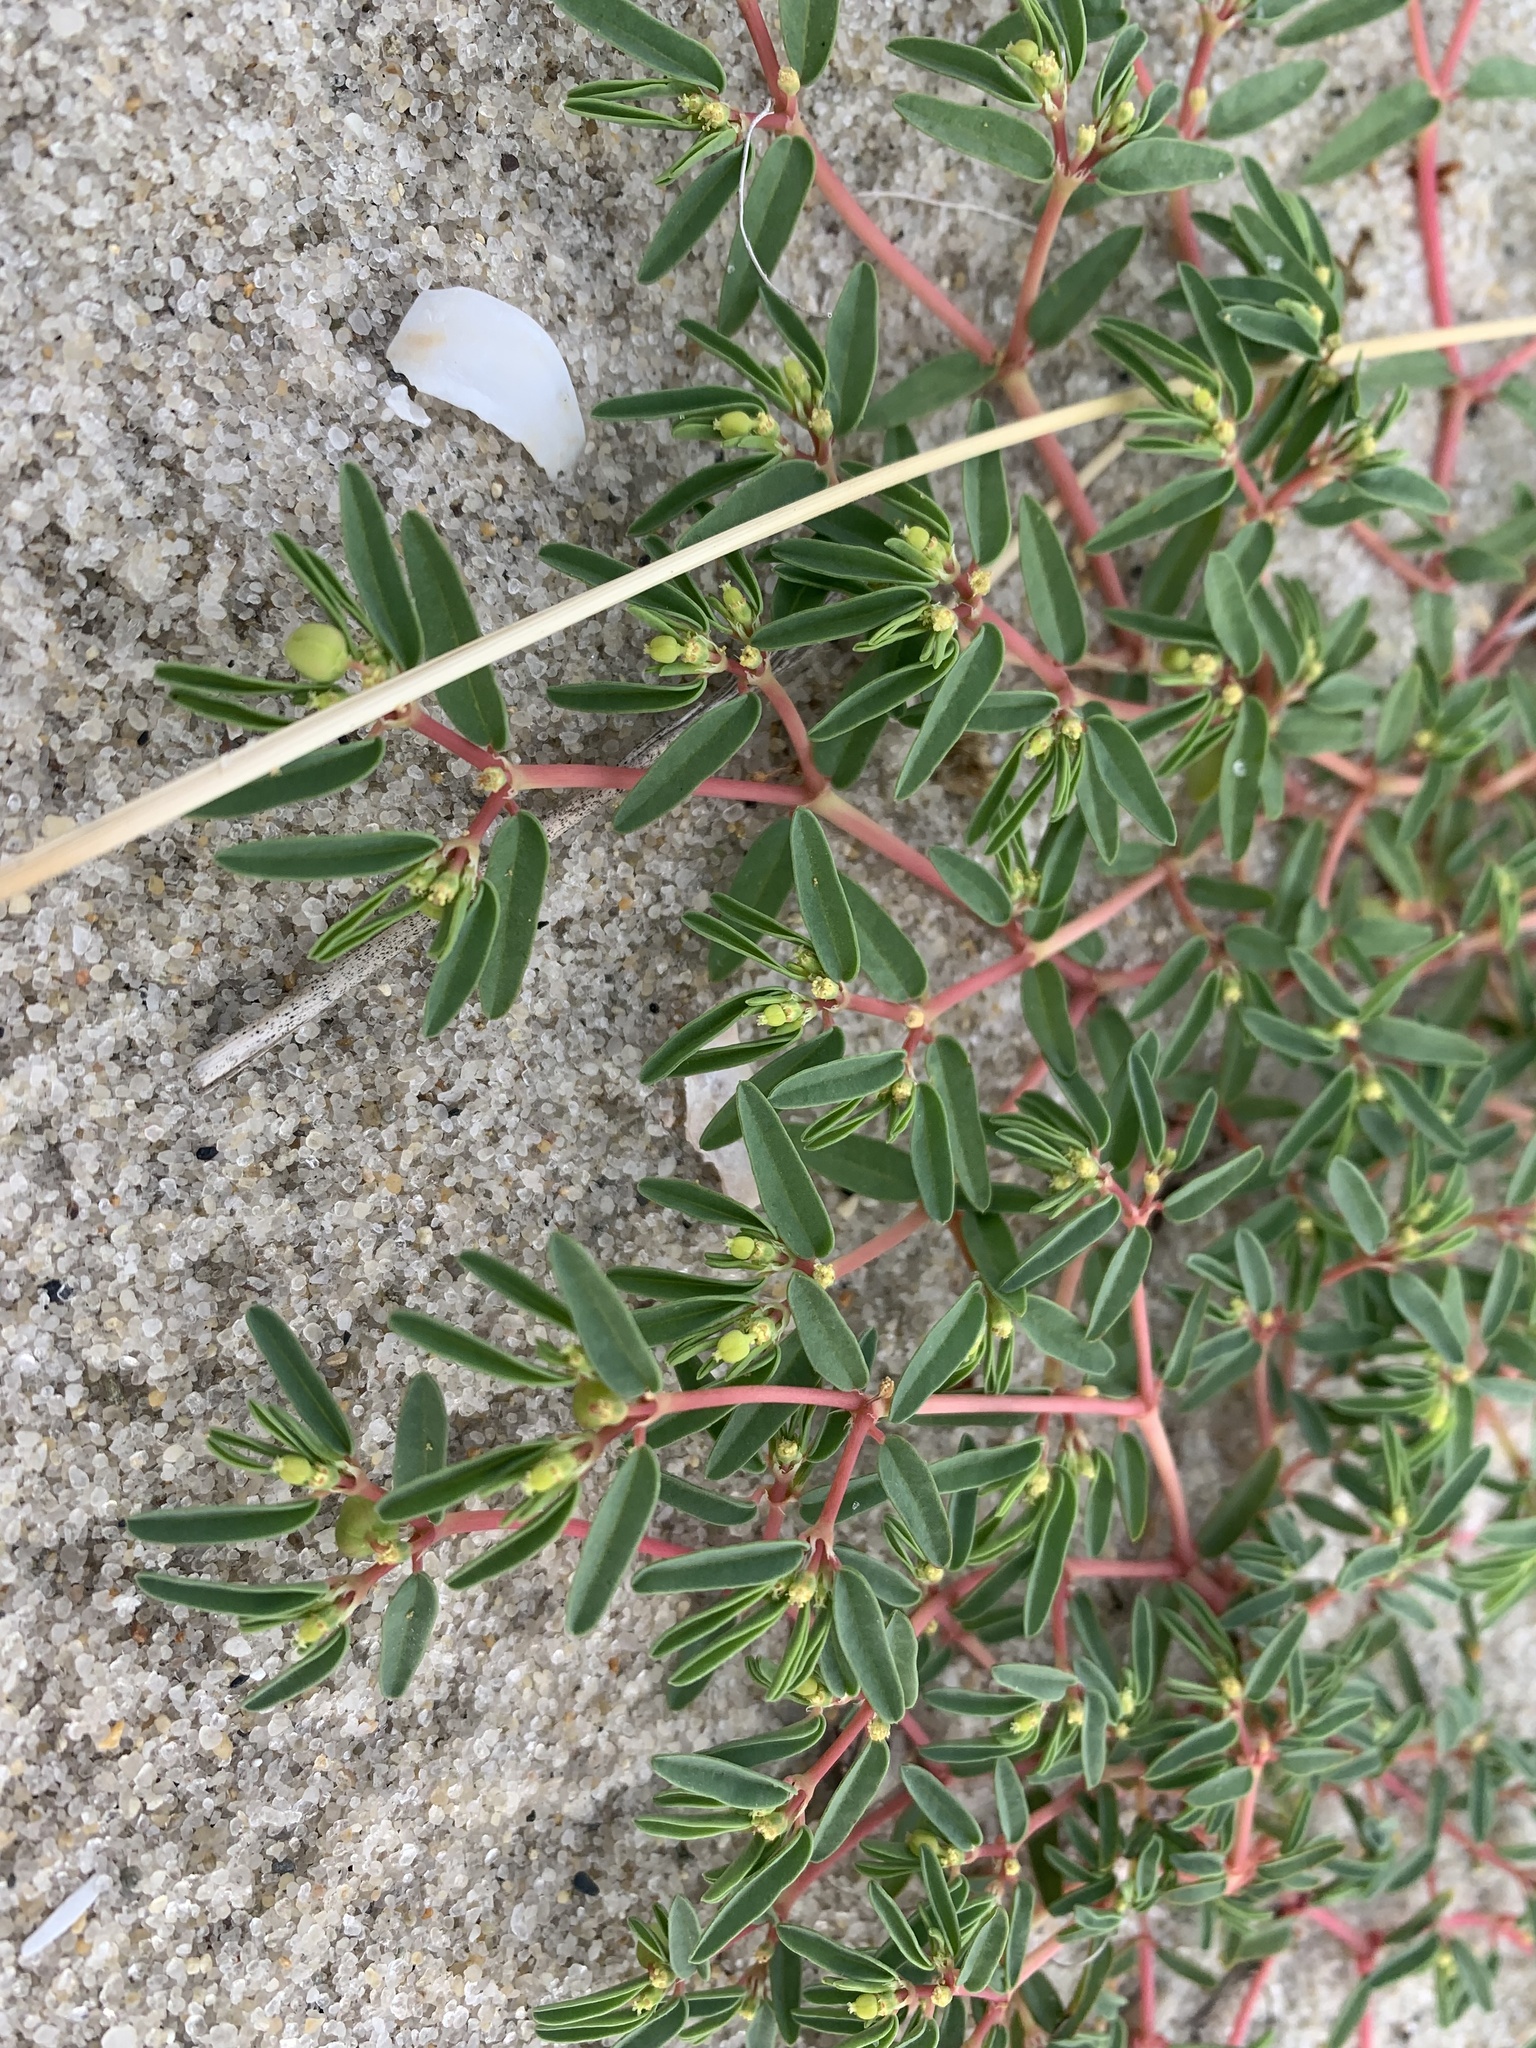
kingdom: Plantae
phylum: Tracheophyta
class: Magnoliopsida
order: Malpighiales
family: Euphorbiaceae
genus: Euphorbia
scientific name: Euphorbia polygonifolia
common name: Knotweed spurge
